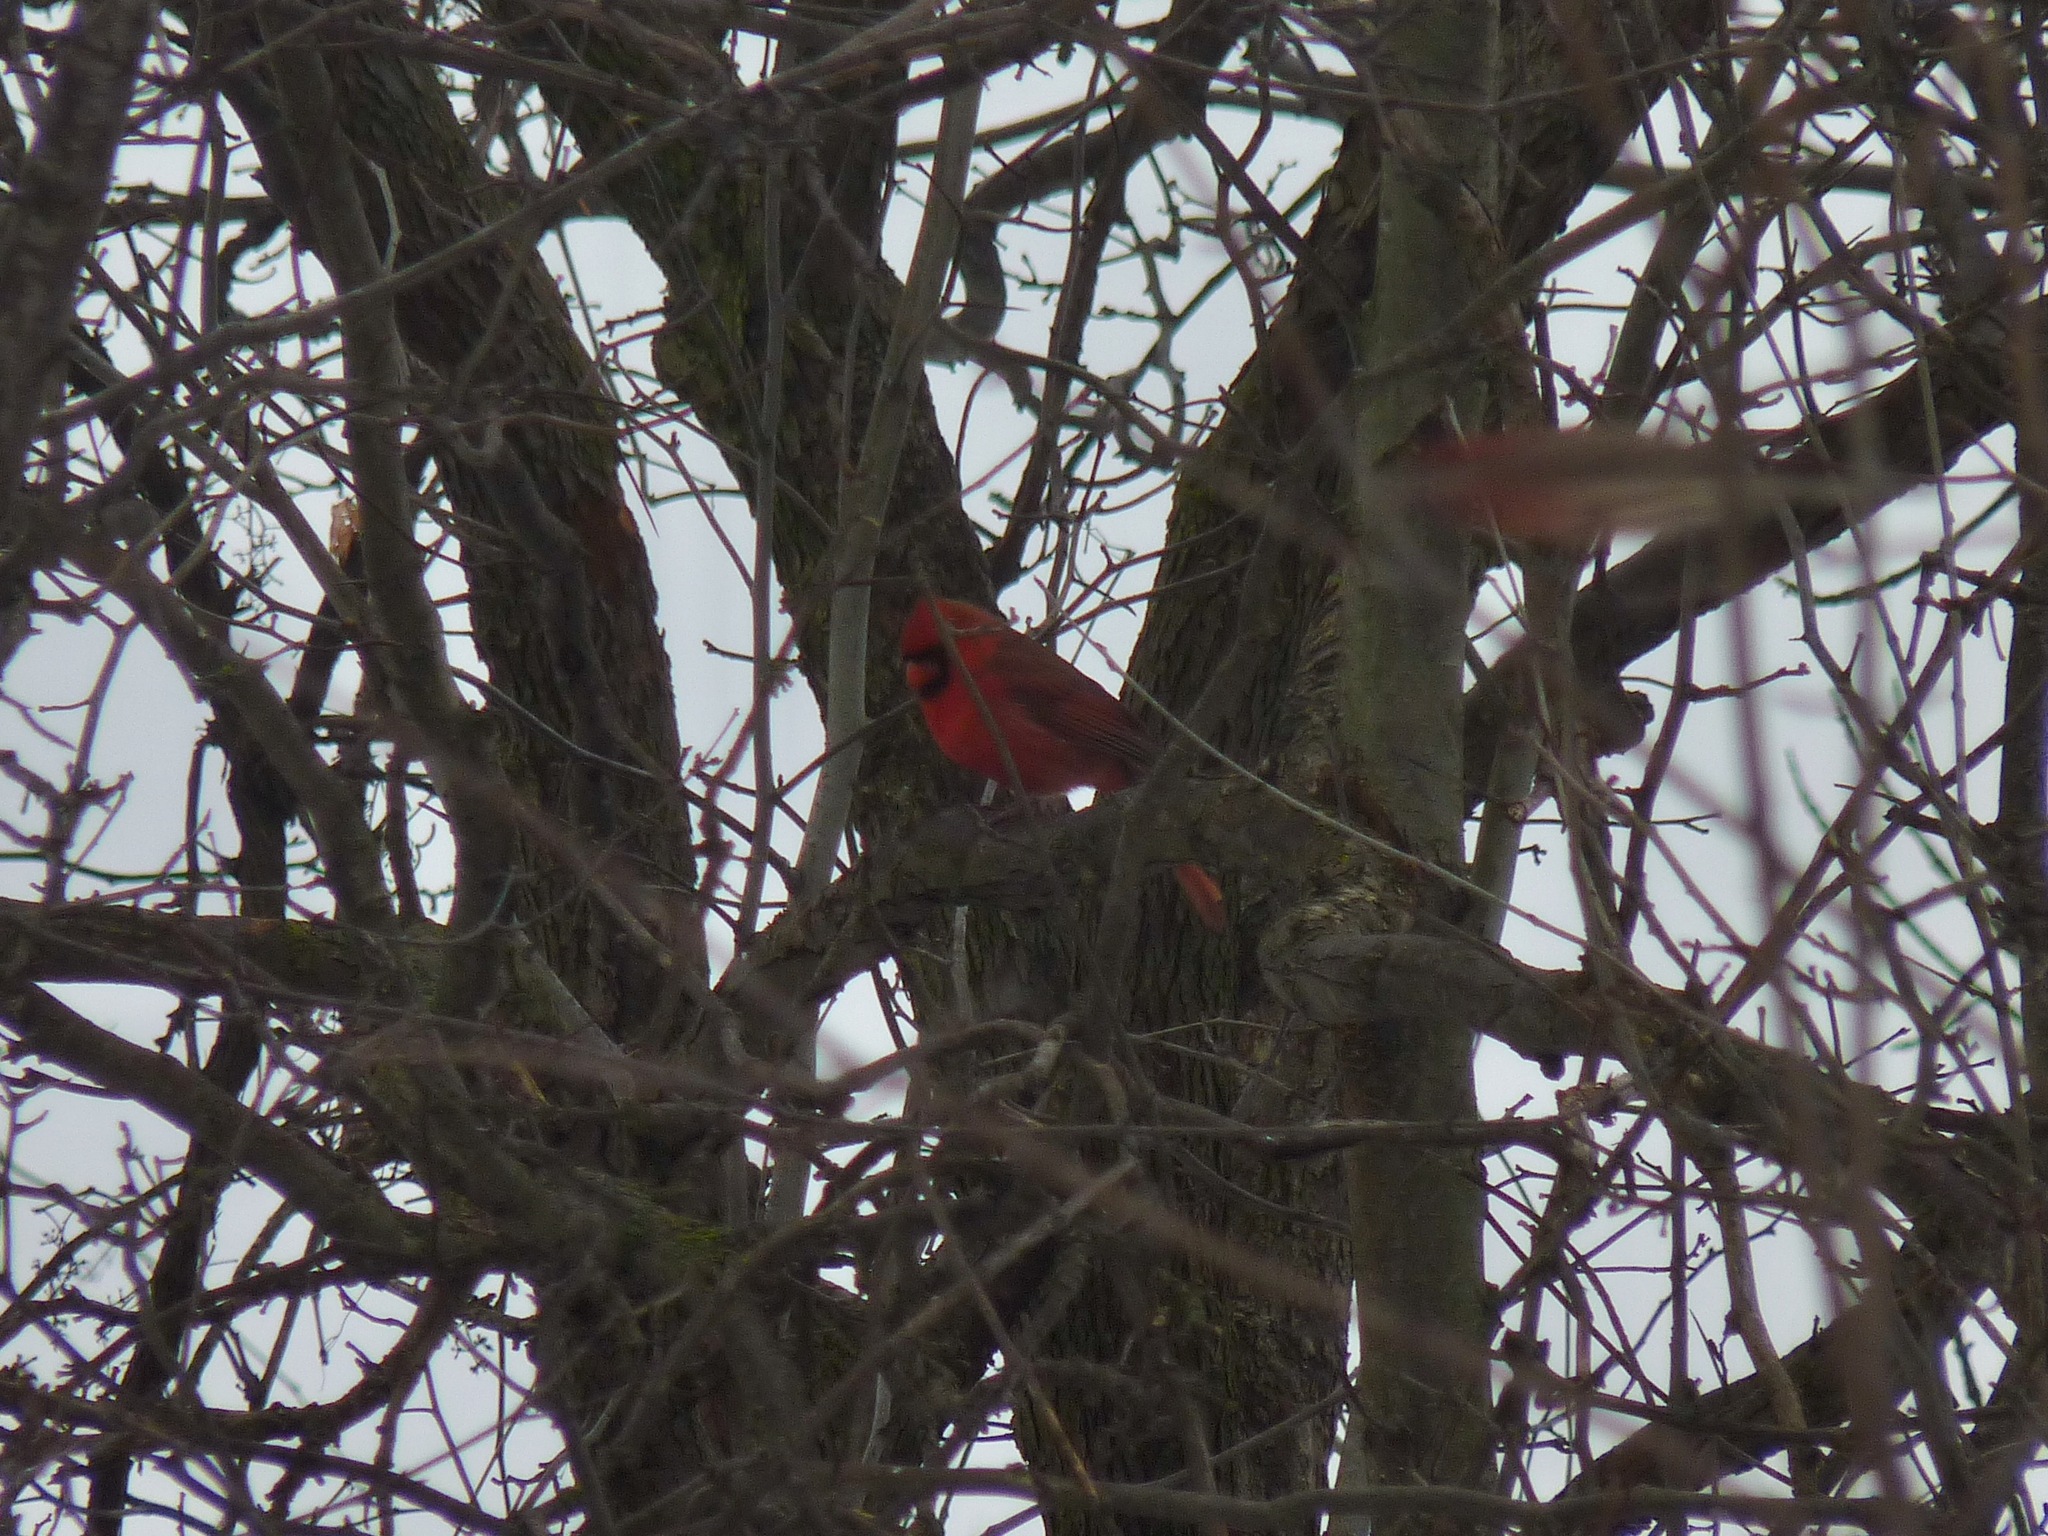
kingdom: Animalia
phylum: Chordata
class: Aves
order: Passeriformes
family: Cardinalidae
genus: Cardinalis
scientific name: Cardinalis cardinalis
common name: Northern cardinal
